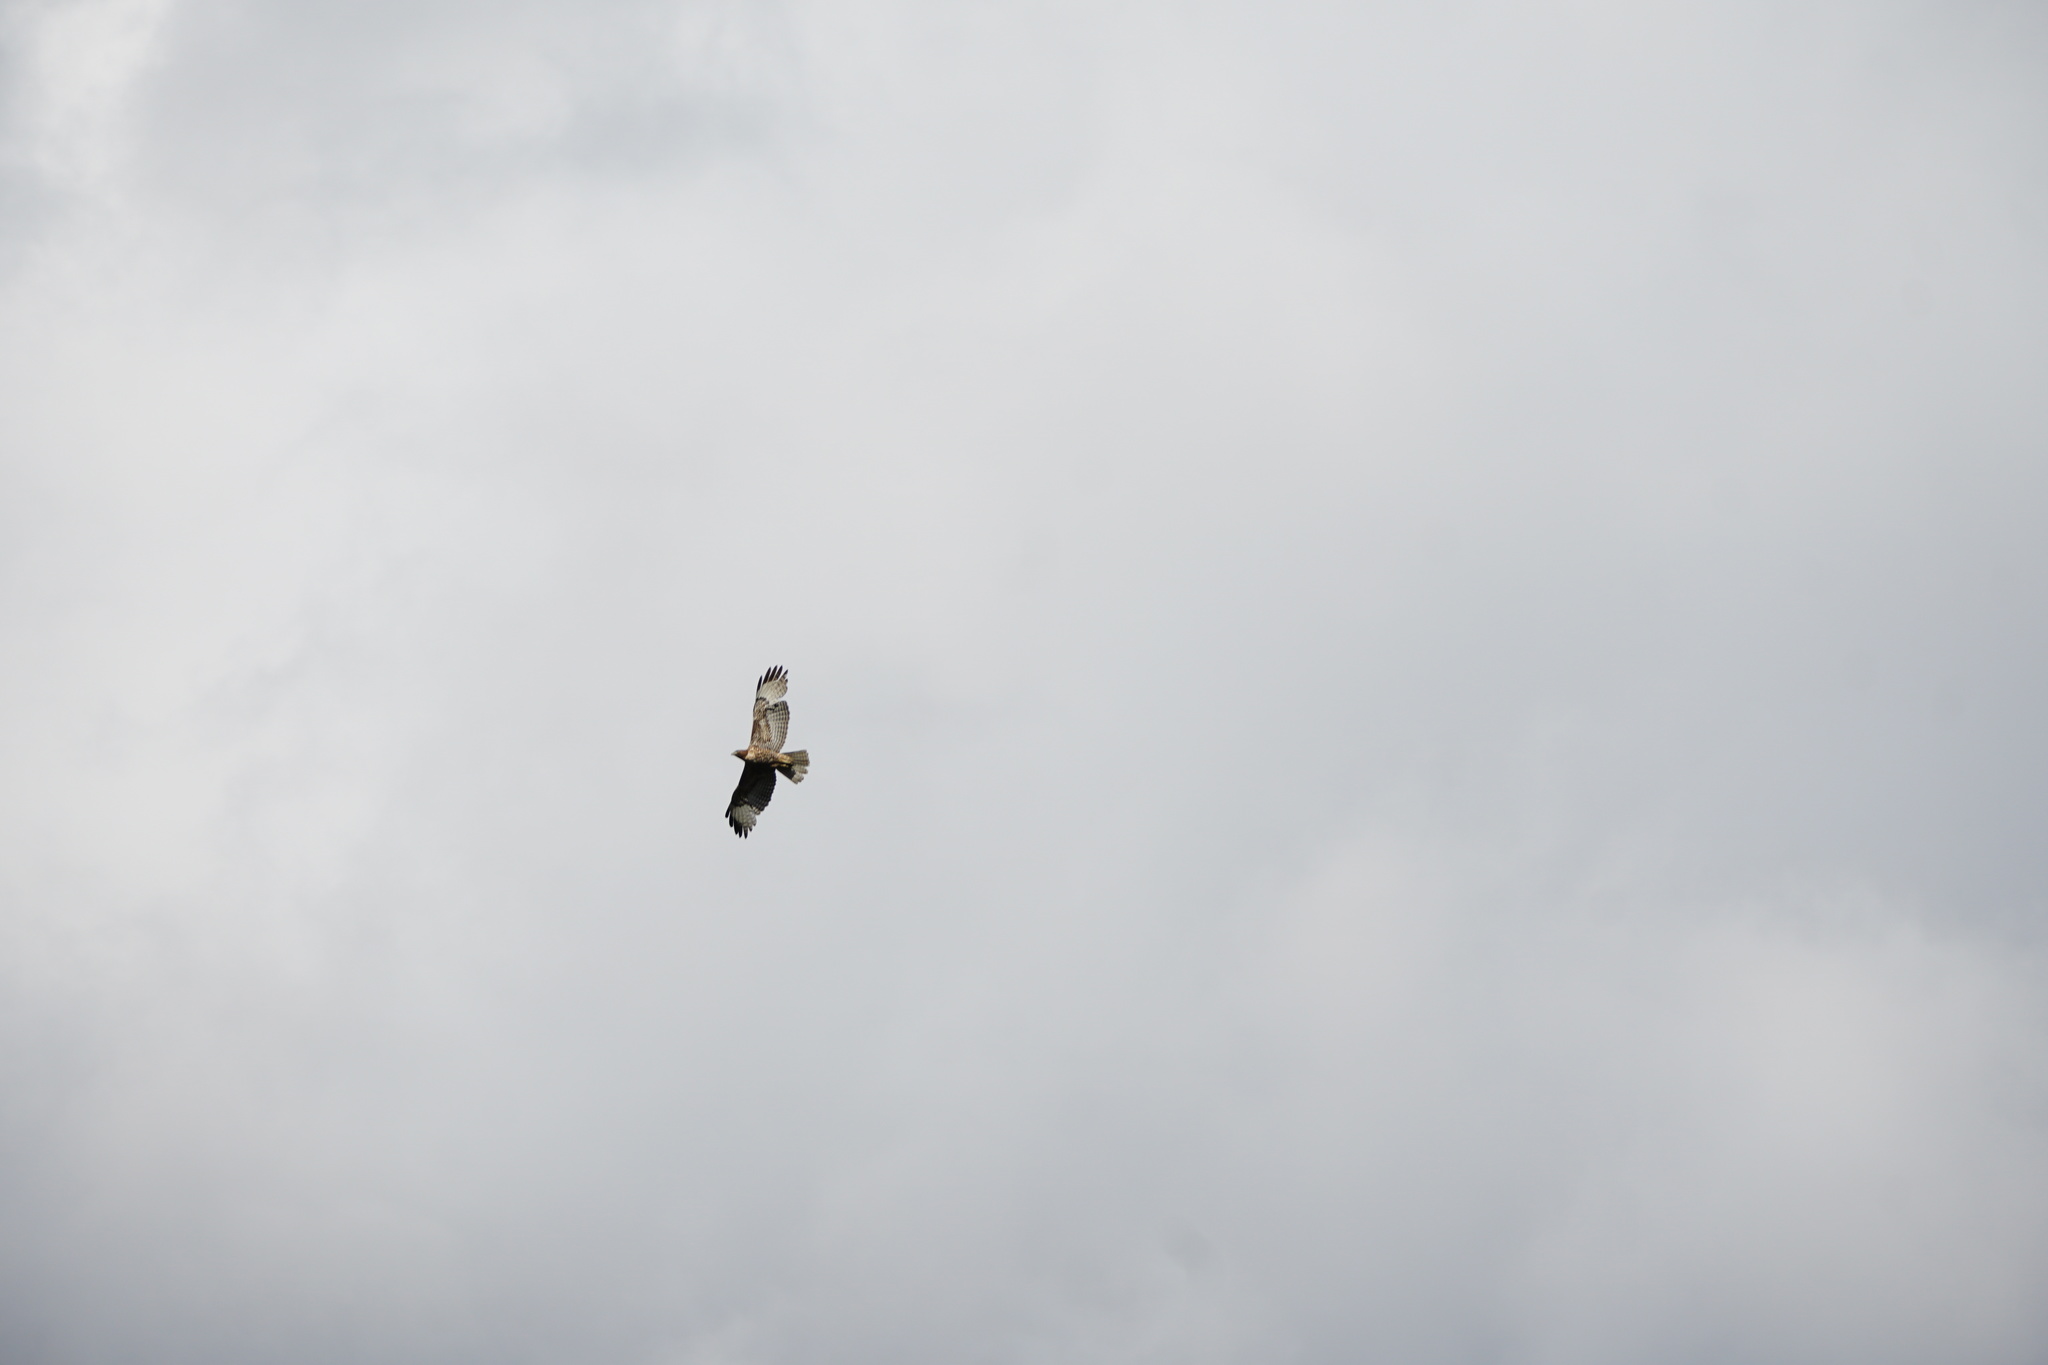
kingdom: Animalia
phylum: Chordata
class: Aves
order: Accipitriformes
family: Accipitridae
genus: Buteo
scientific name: Buteo jamaicensis
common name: Red-tailed hawk
